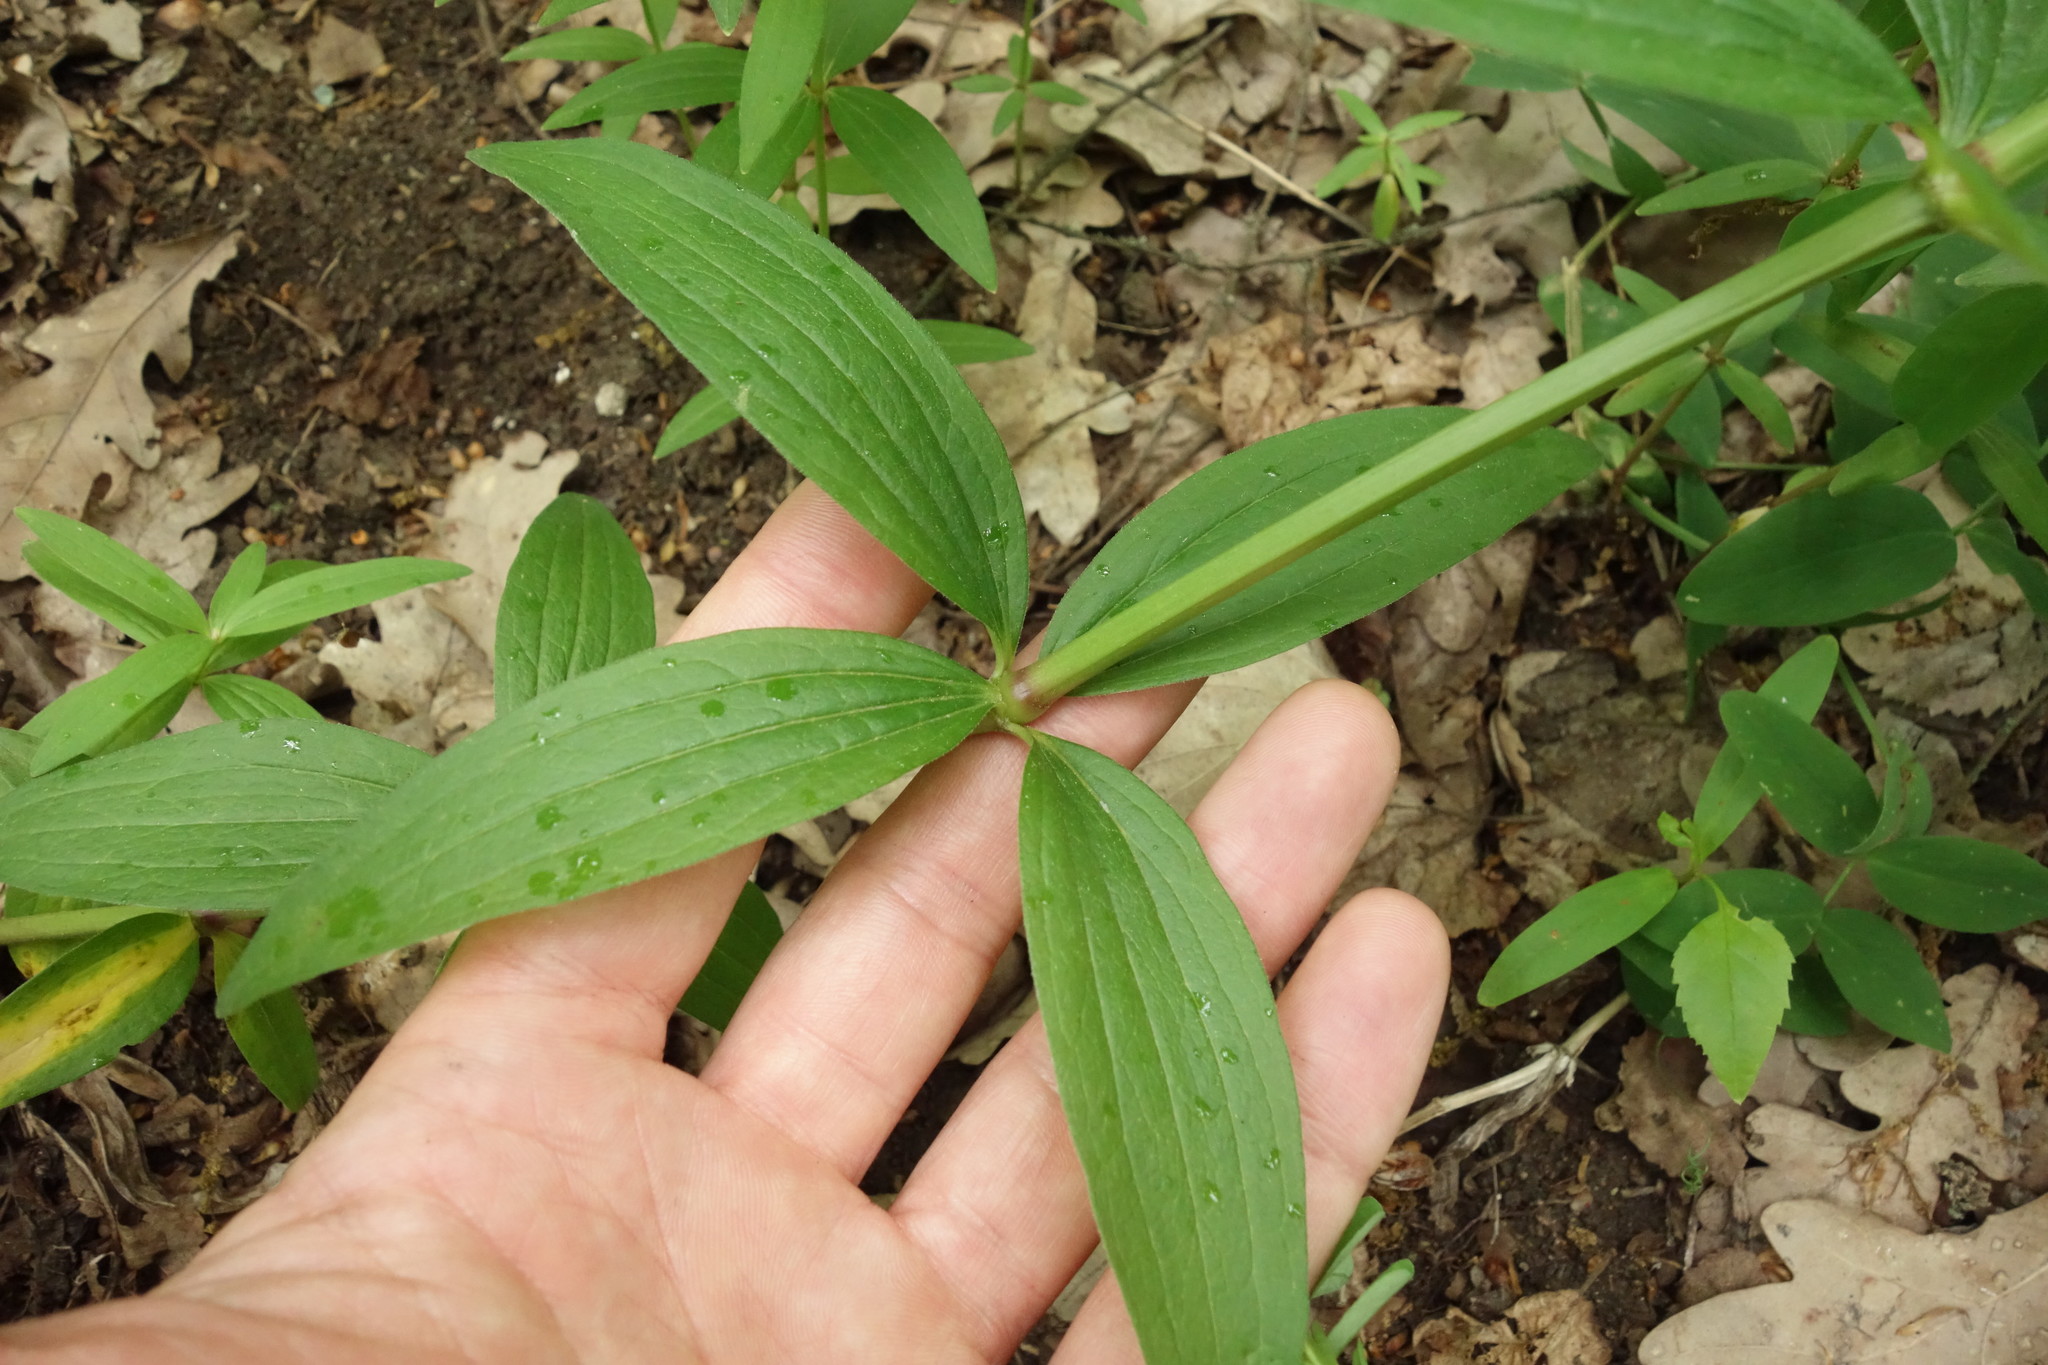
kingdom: Plantae
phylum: Tracheophyta
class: Magnoliopsida
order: Gentianales
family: Rubiaceae
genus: Galium
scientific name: Galium rubioides
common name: European bedstraw
